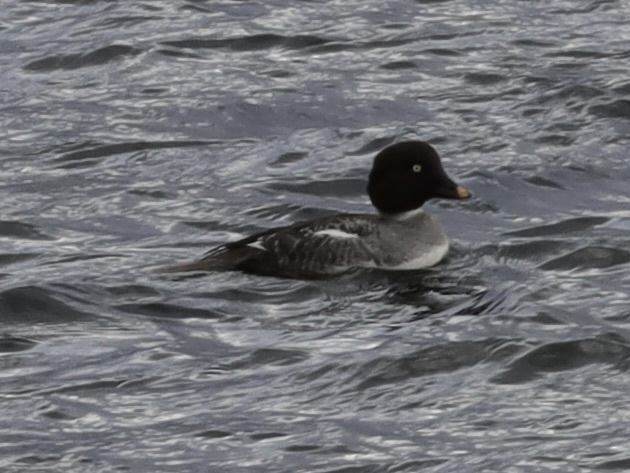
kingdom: Animalia
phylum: Chordata
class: Aves
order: Anseriformes
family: Anatidae
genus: Bucephala
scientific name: Bucephala clangula
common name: Common goldeneye
